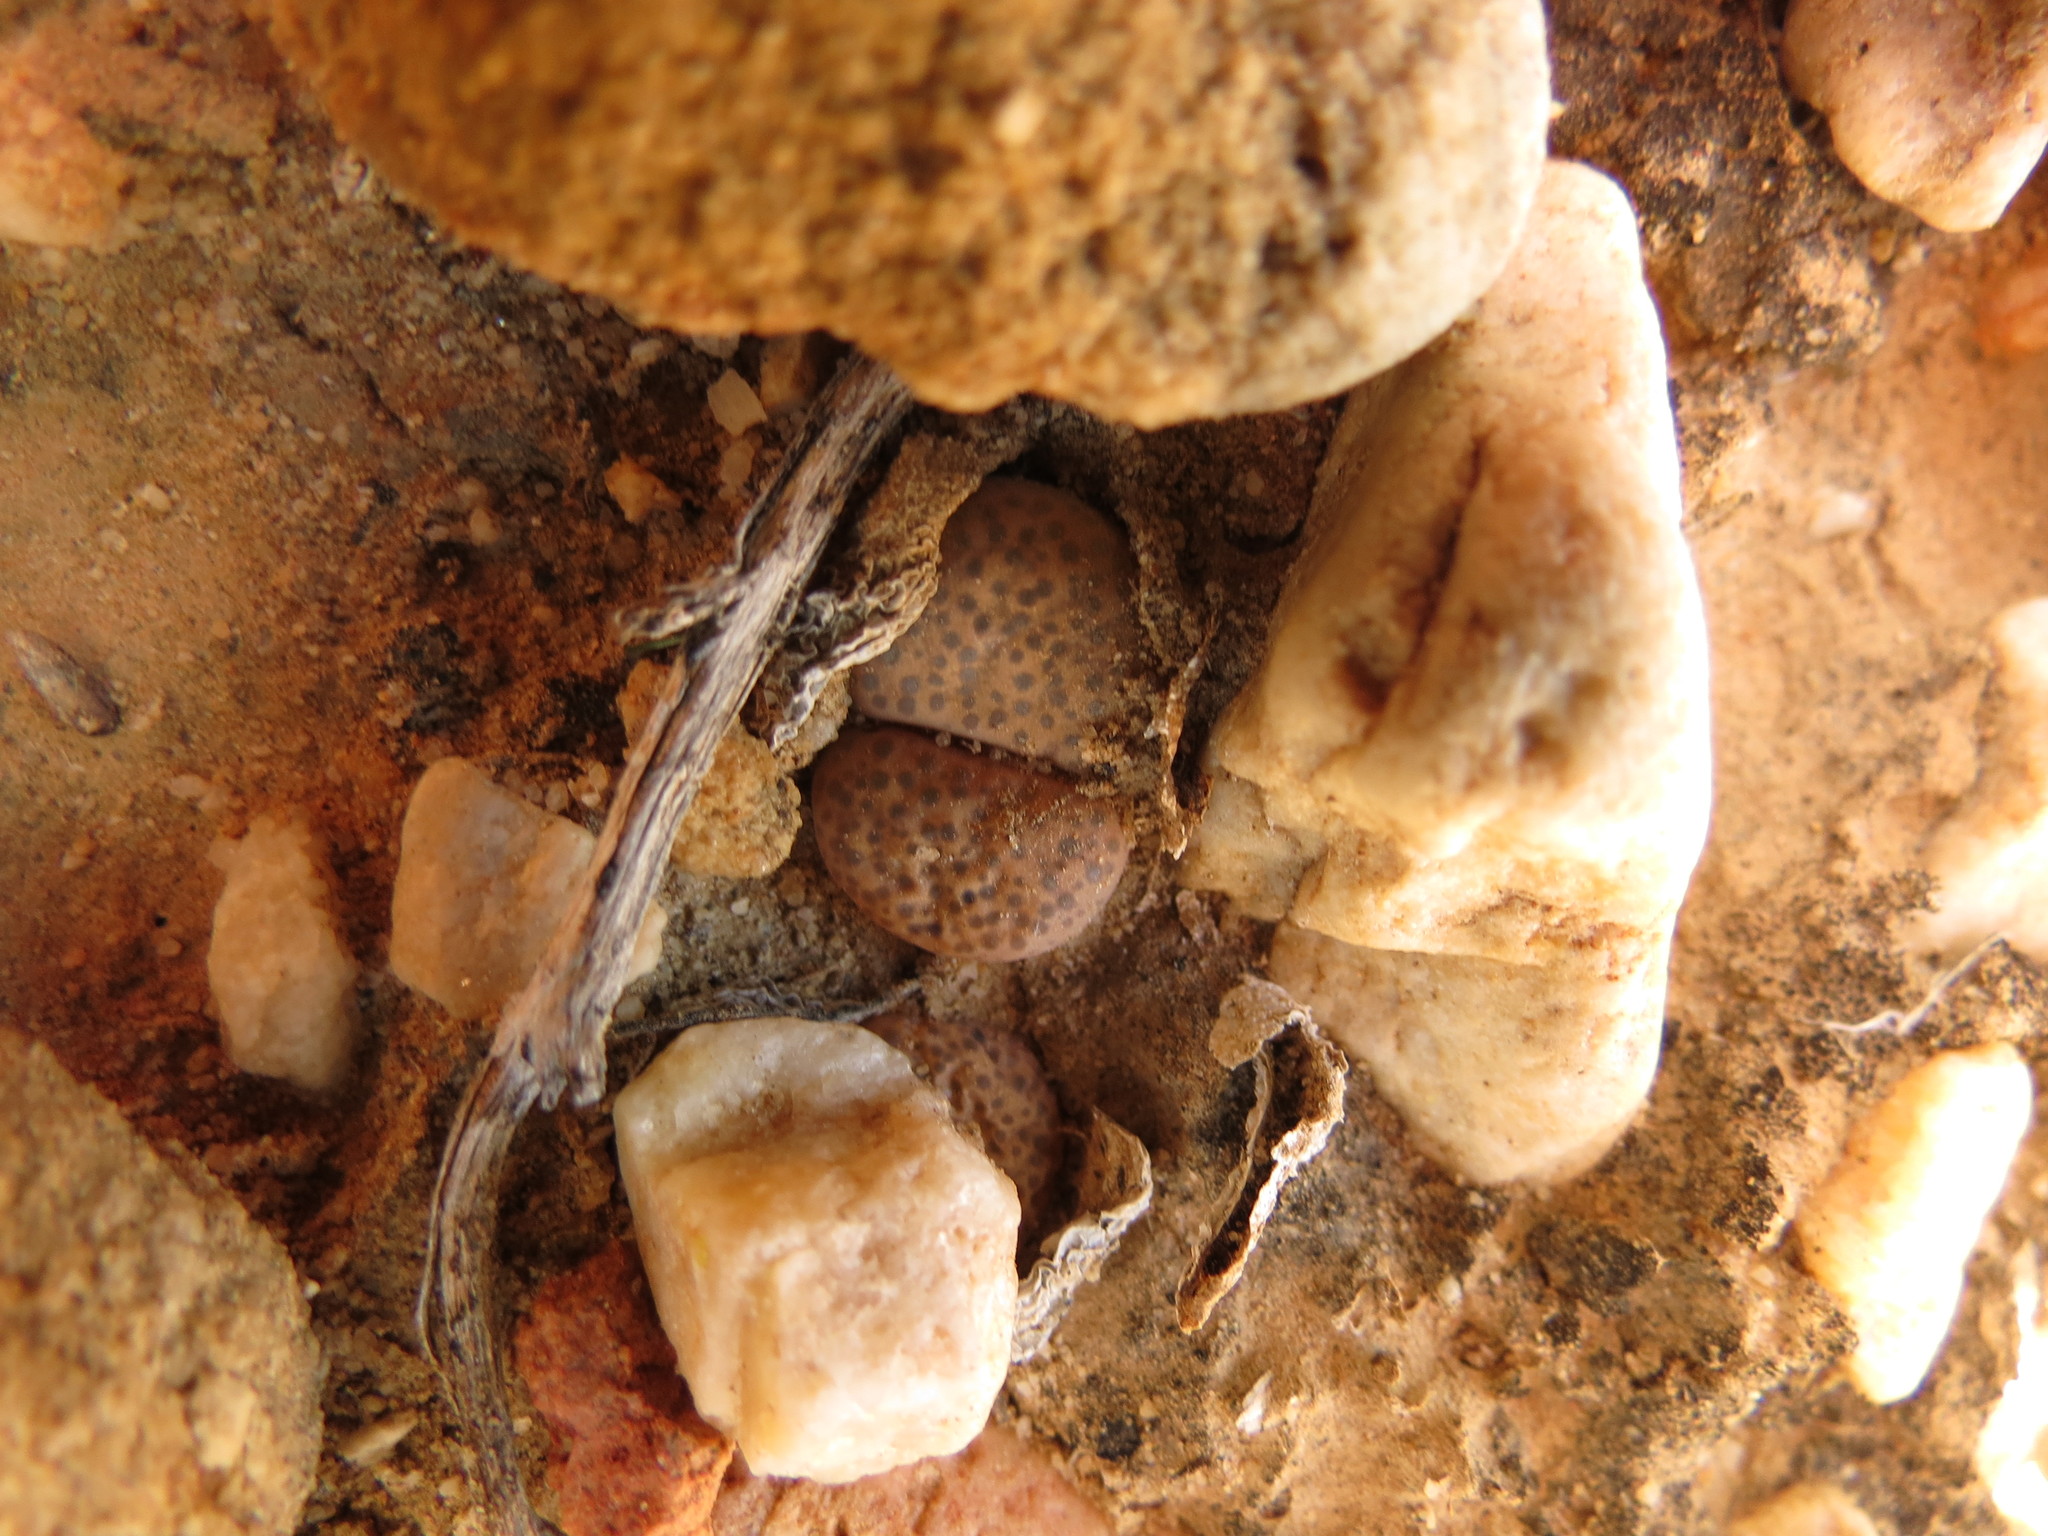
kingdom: Plantae
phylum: Tracheophyta
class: Magnoliopsida
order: Caryophyllales
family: Aizoaceae
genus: Lithops
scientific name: Lithops localis
